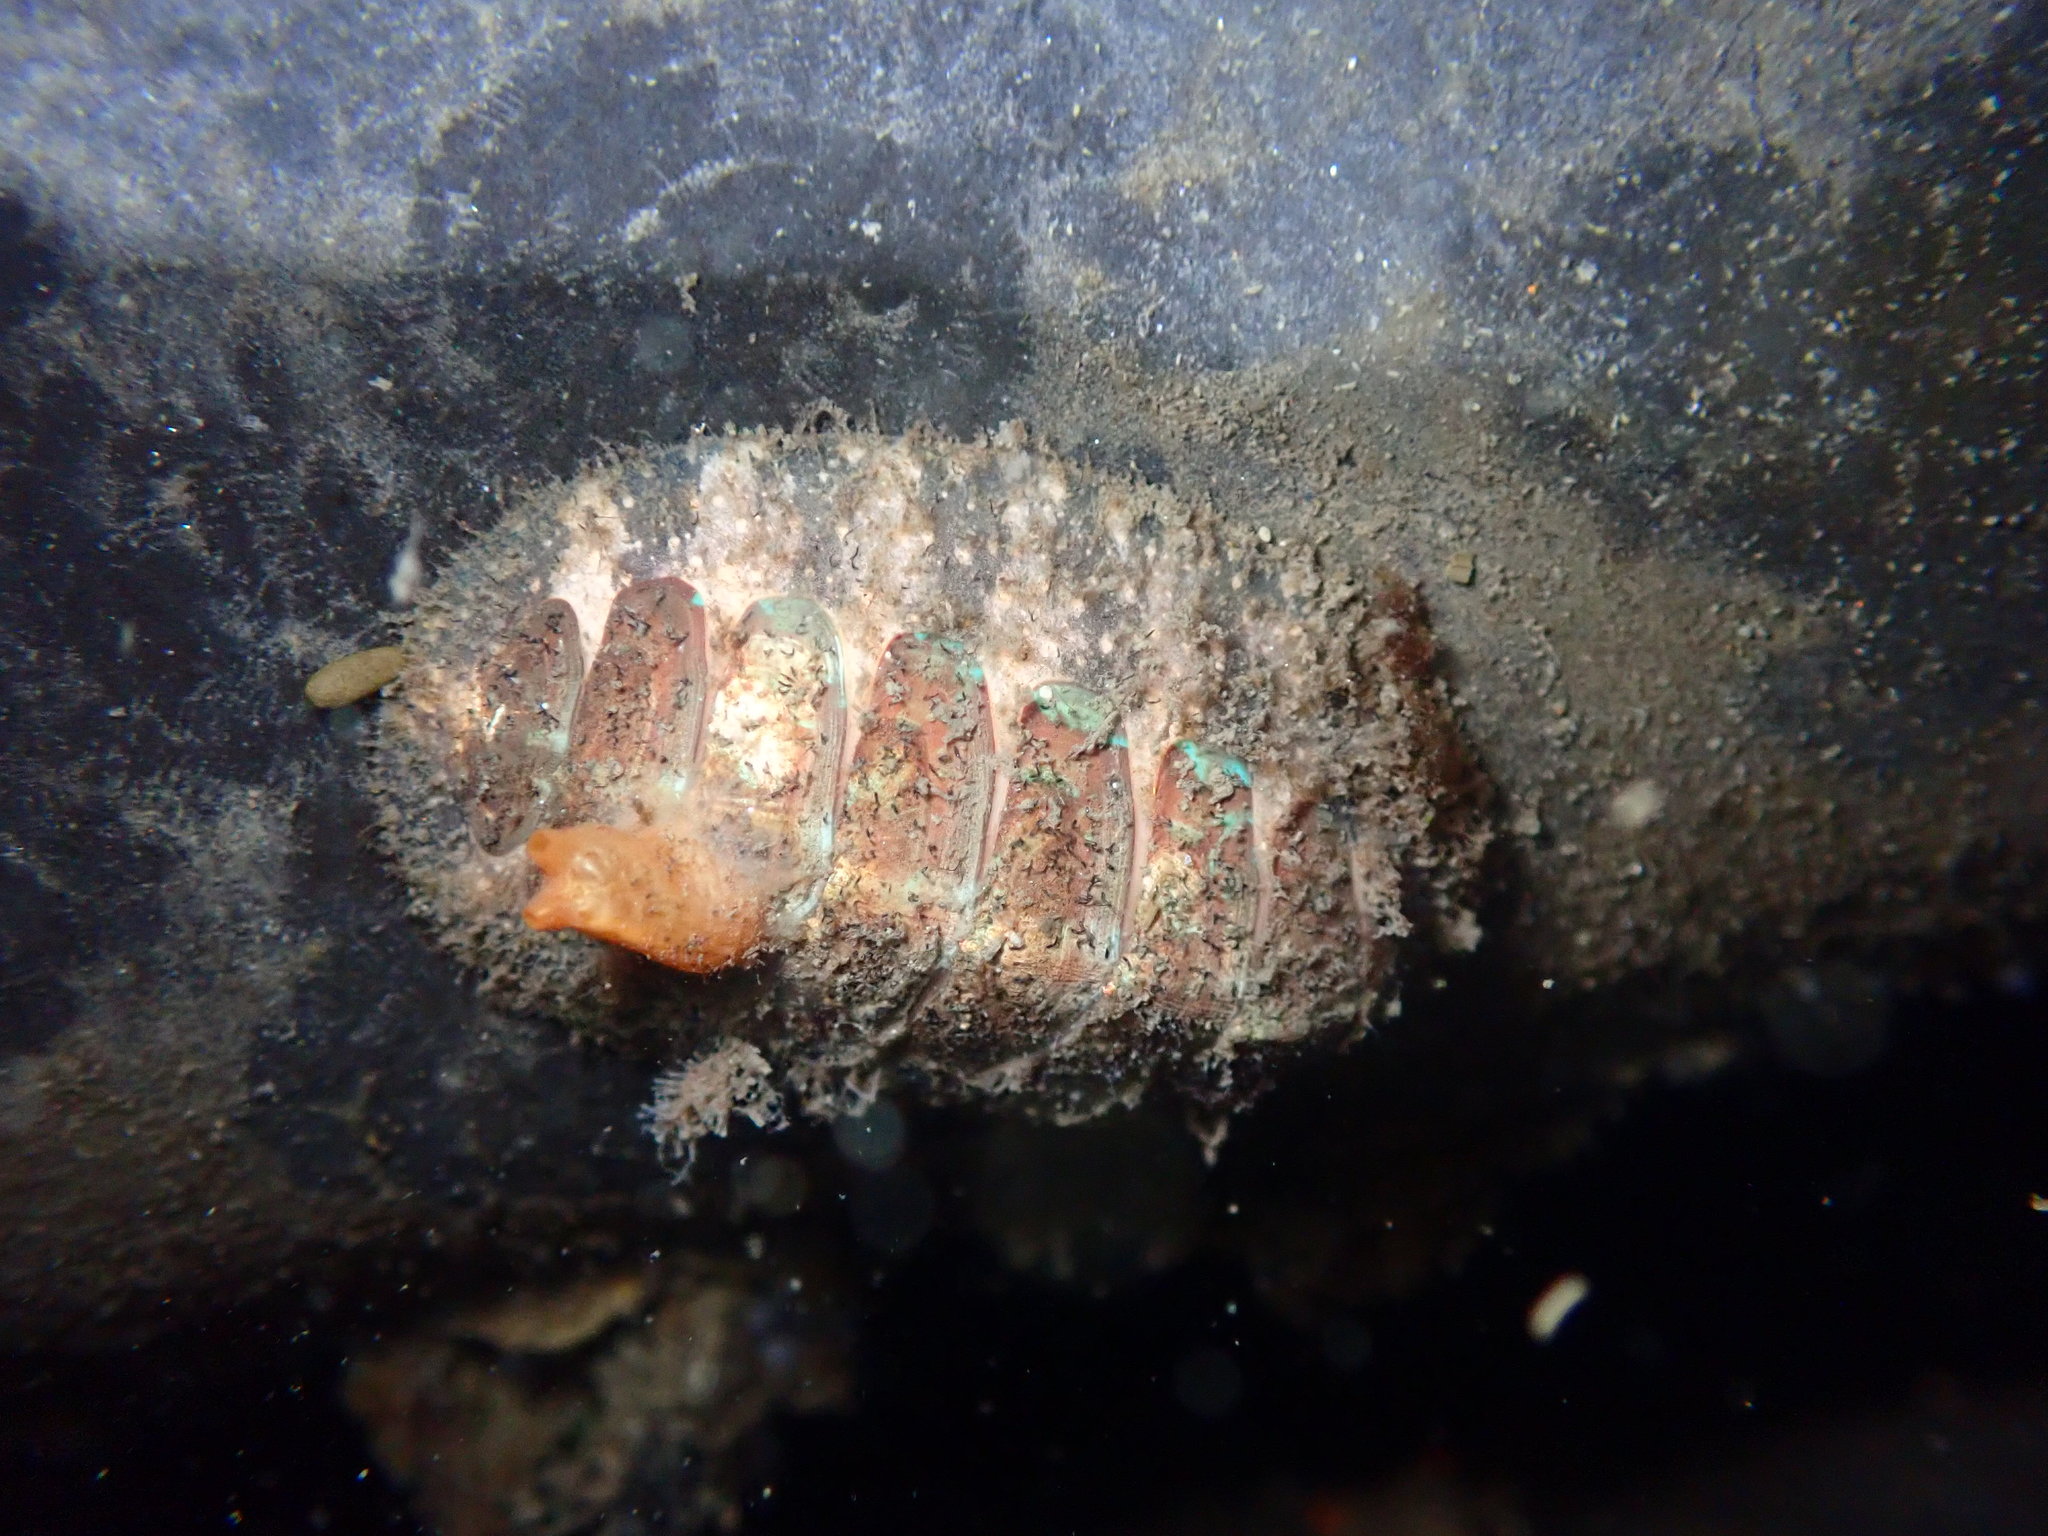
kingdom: Animalia
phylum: Mollusca
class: Polyplacophora
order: Chitonida
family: Mopaliidae
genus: Mopalia
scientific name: Mopalia spectabilis
